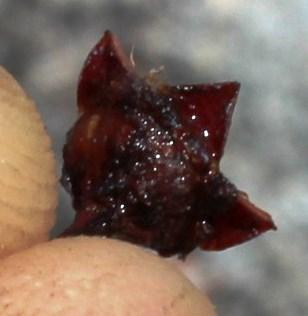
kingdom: Plantae
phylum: Tracheophyta
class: Magnoliopsida
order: Caryophyllales
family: Aizoaceae
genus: Braunsia
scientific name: Braunsia maximiliani
